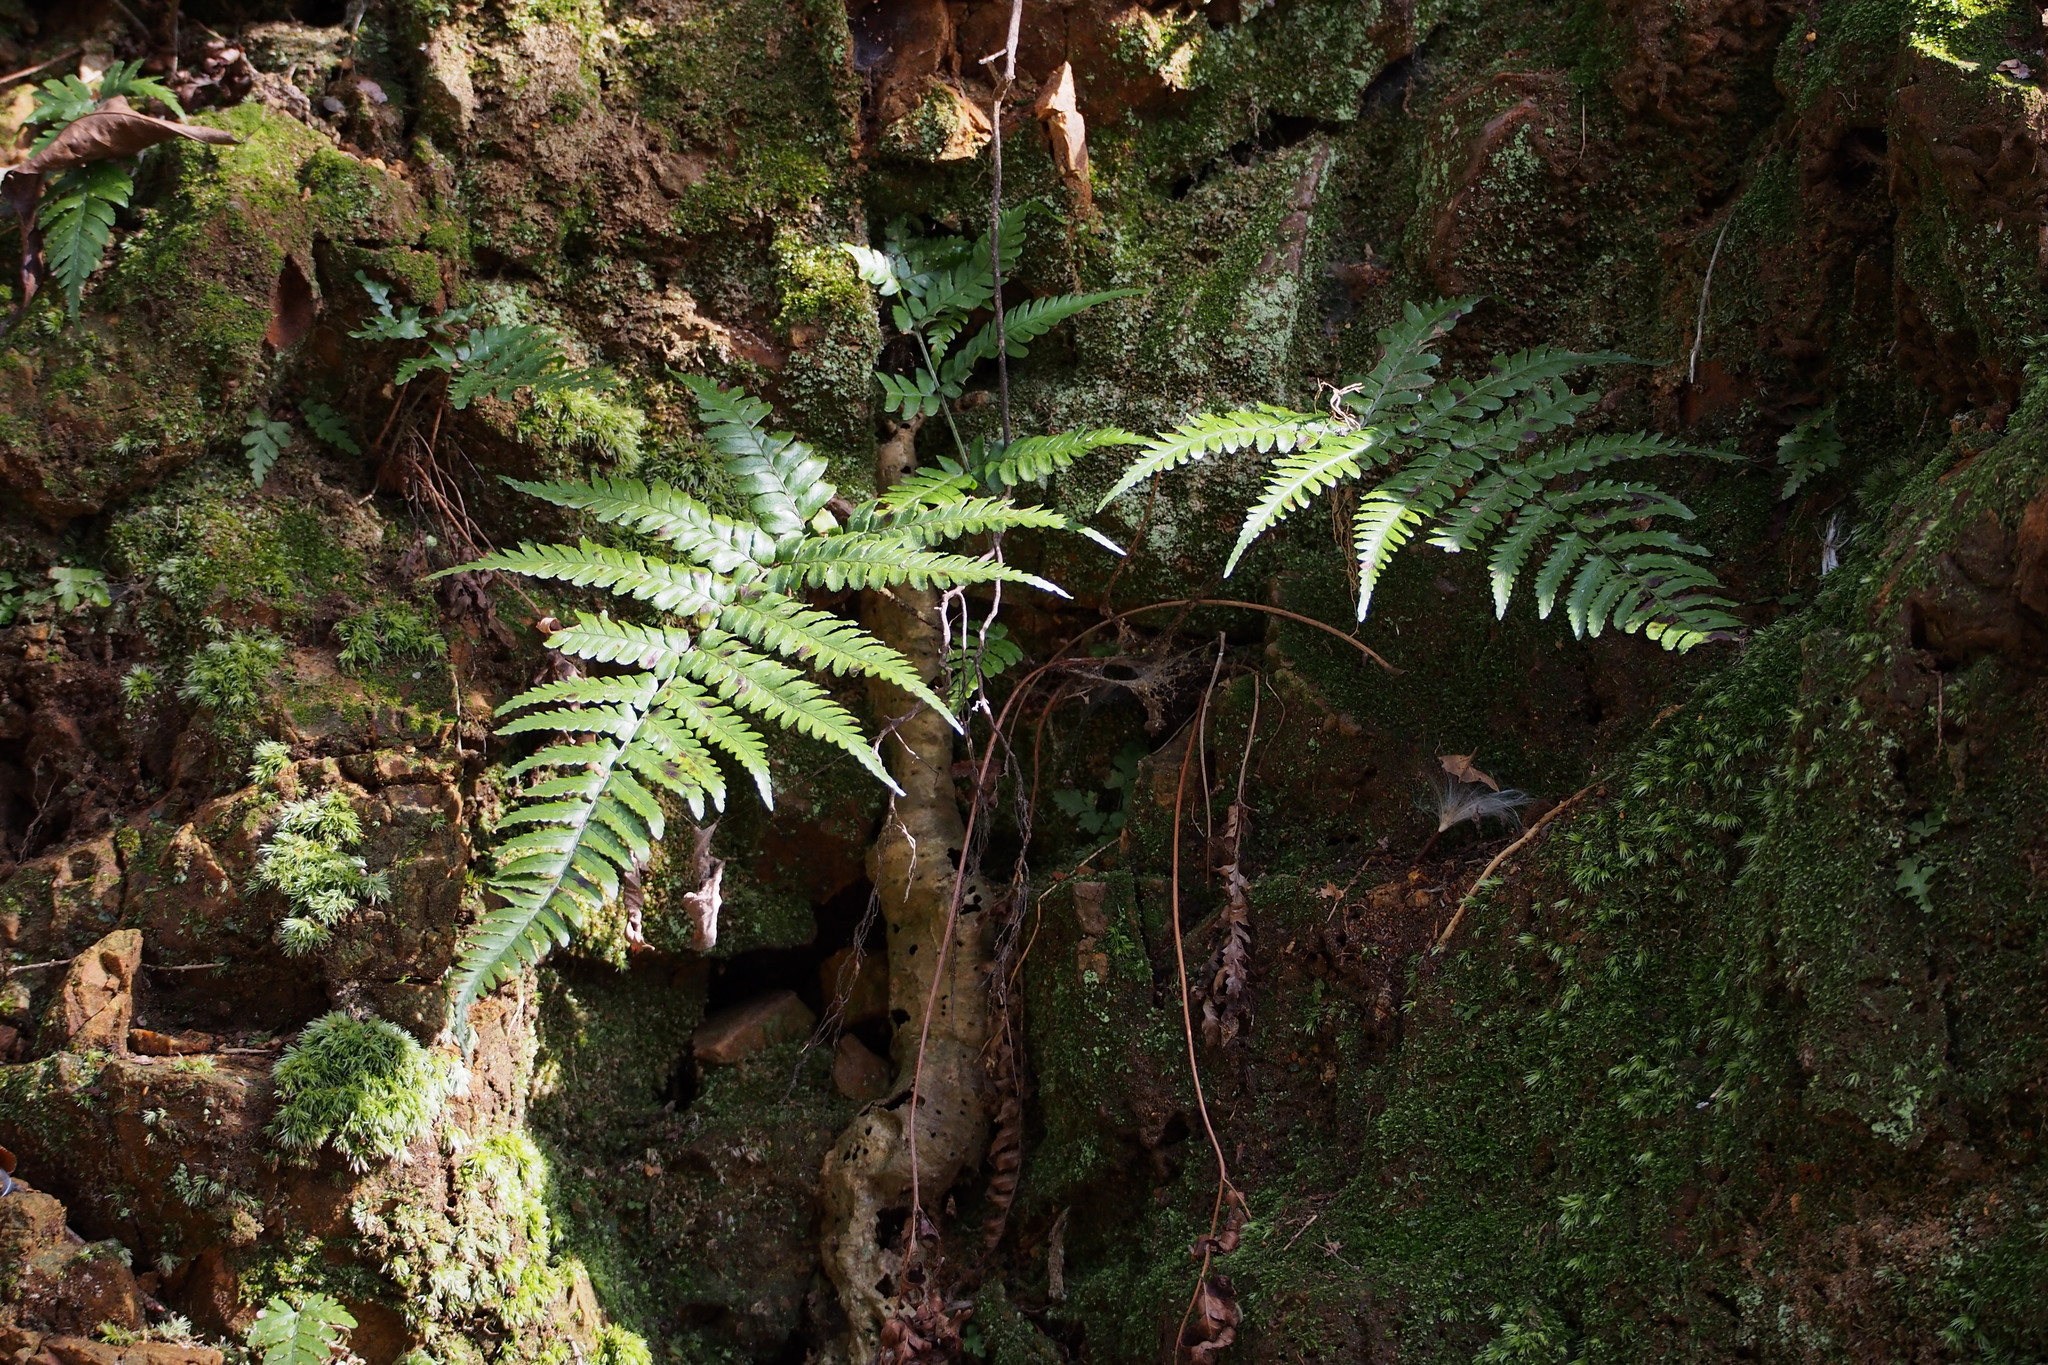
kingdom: Plantae
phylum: Tracheophyta
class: Polypodiopsida
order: Polypodiales
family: Dryopteridaceae
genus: Dryopteris
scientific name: Dryopteris erythrosora
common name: Autumn fern
